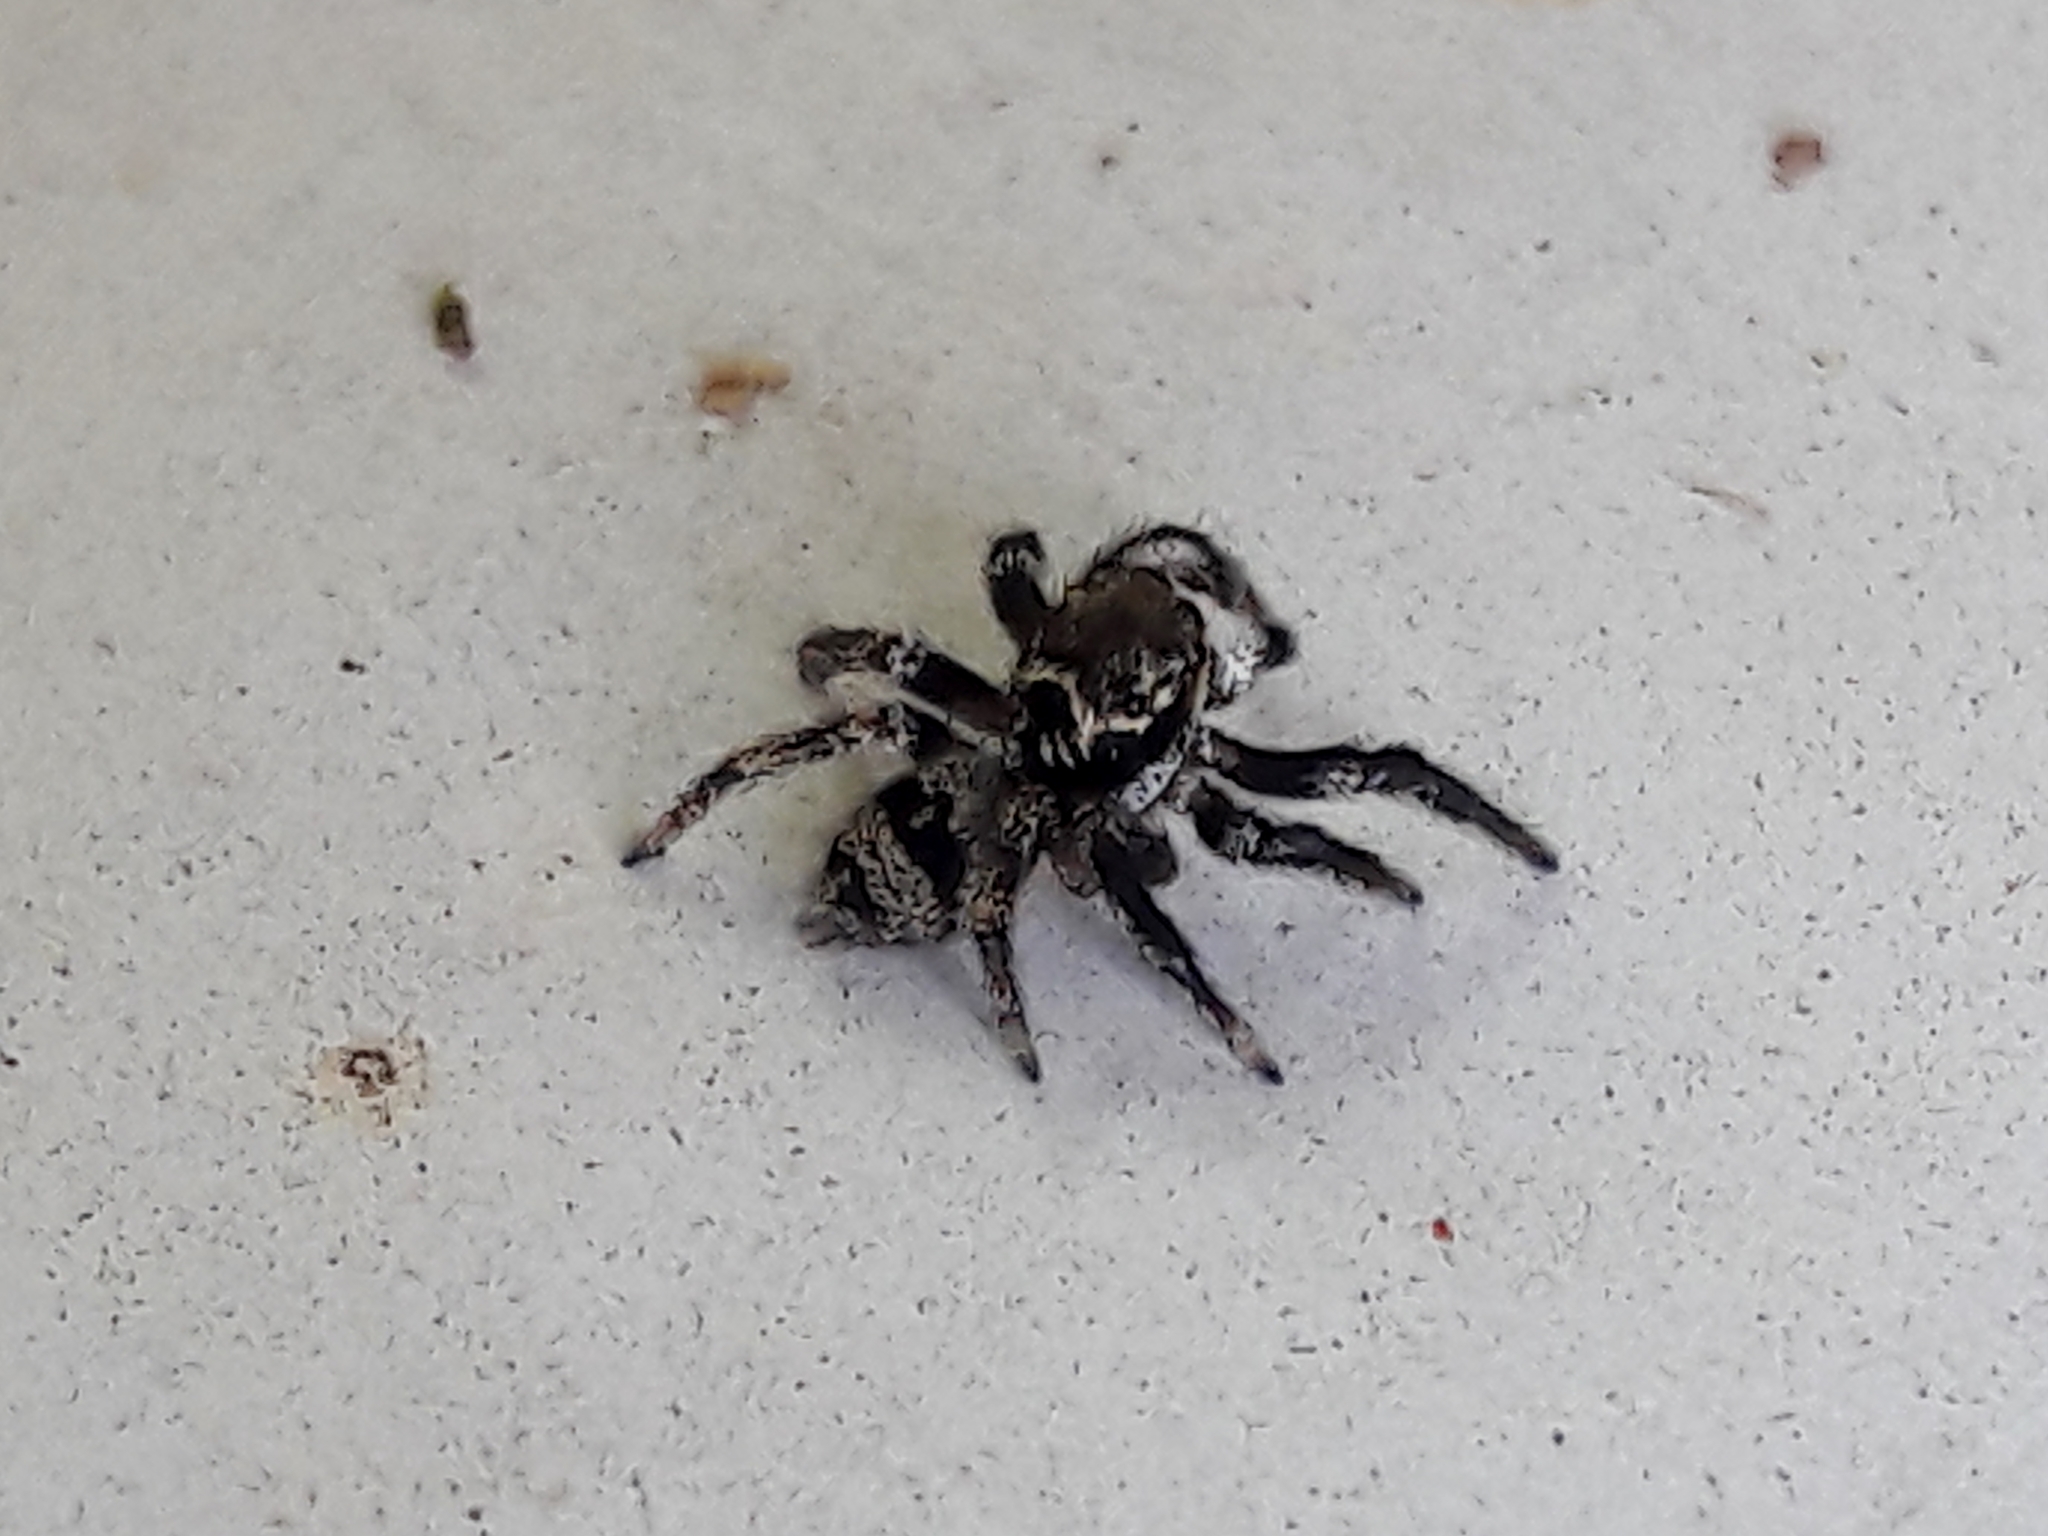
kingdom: Animalia
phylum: Arthropoda
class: Arachnida
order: Araneae
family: Salticidae
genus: Corythalia
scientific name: Corythalia conferta
